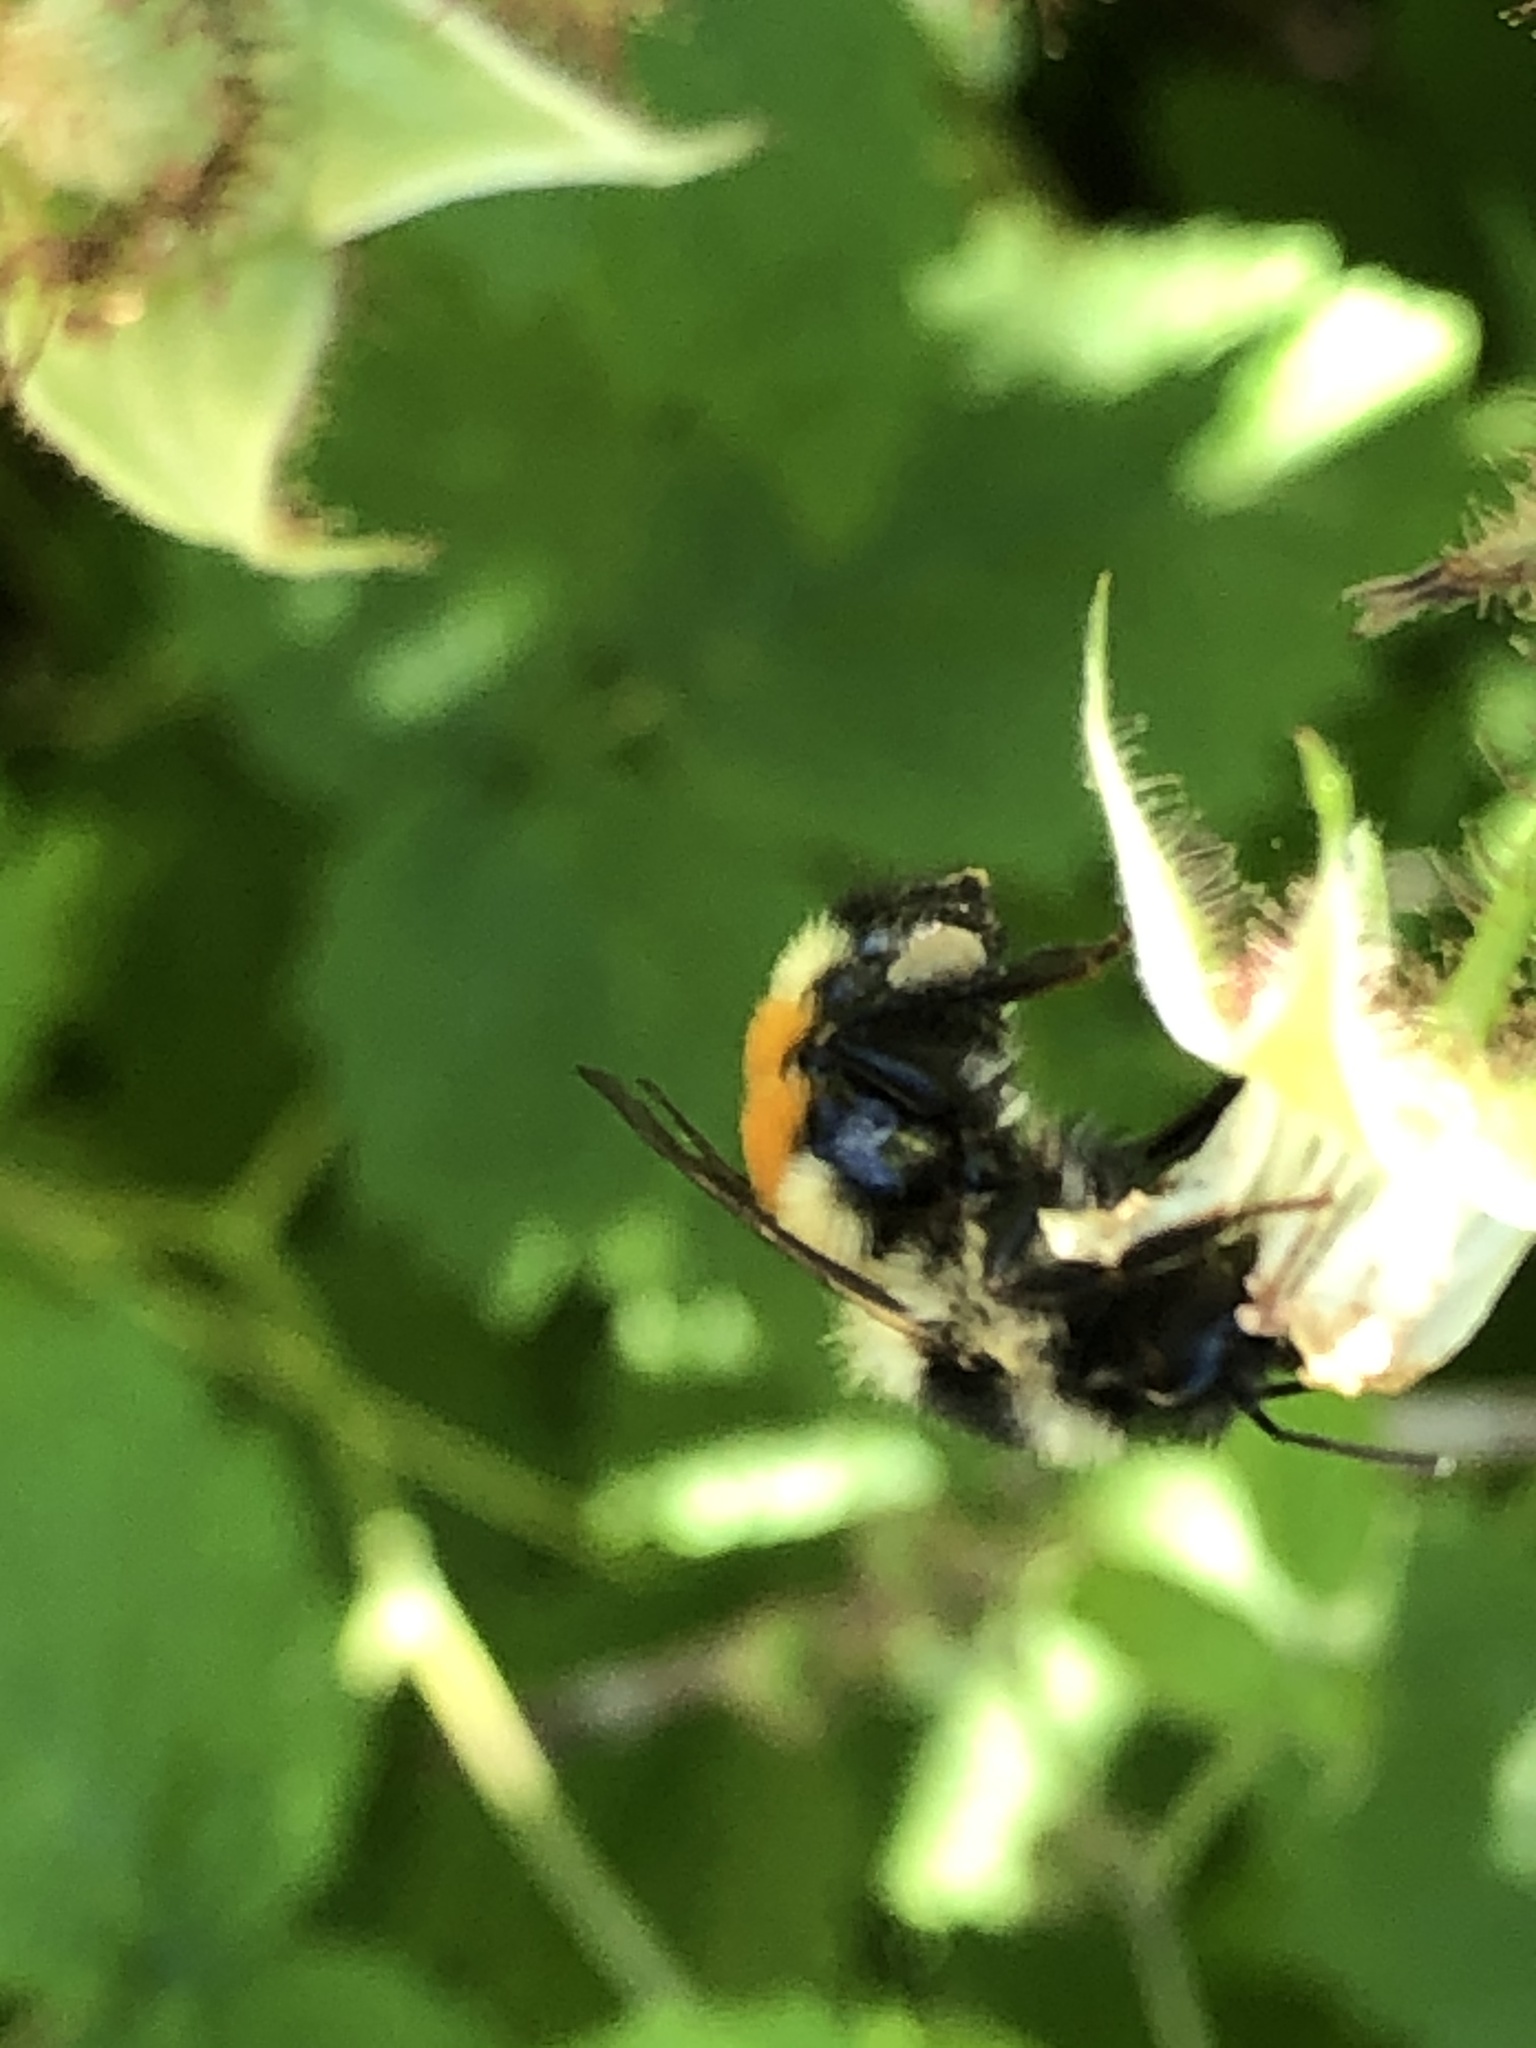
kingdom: Animalia
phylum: Arthropoda
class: Insecta
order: Hymenoptera
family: Apidae
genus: Bombus
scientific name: Bombus ternarius
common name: Tri-colored bumble bee
